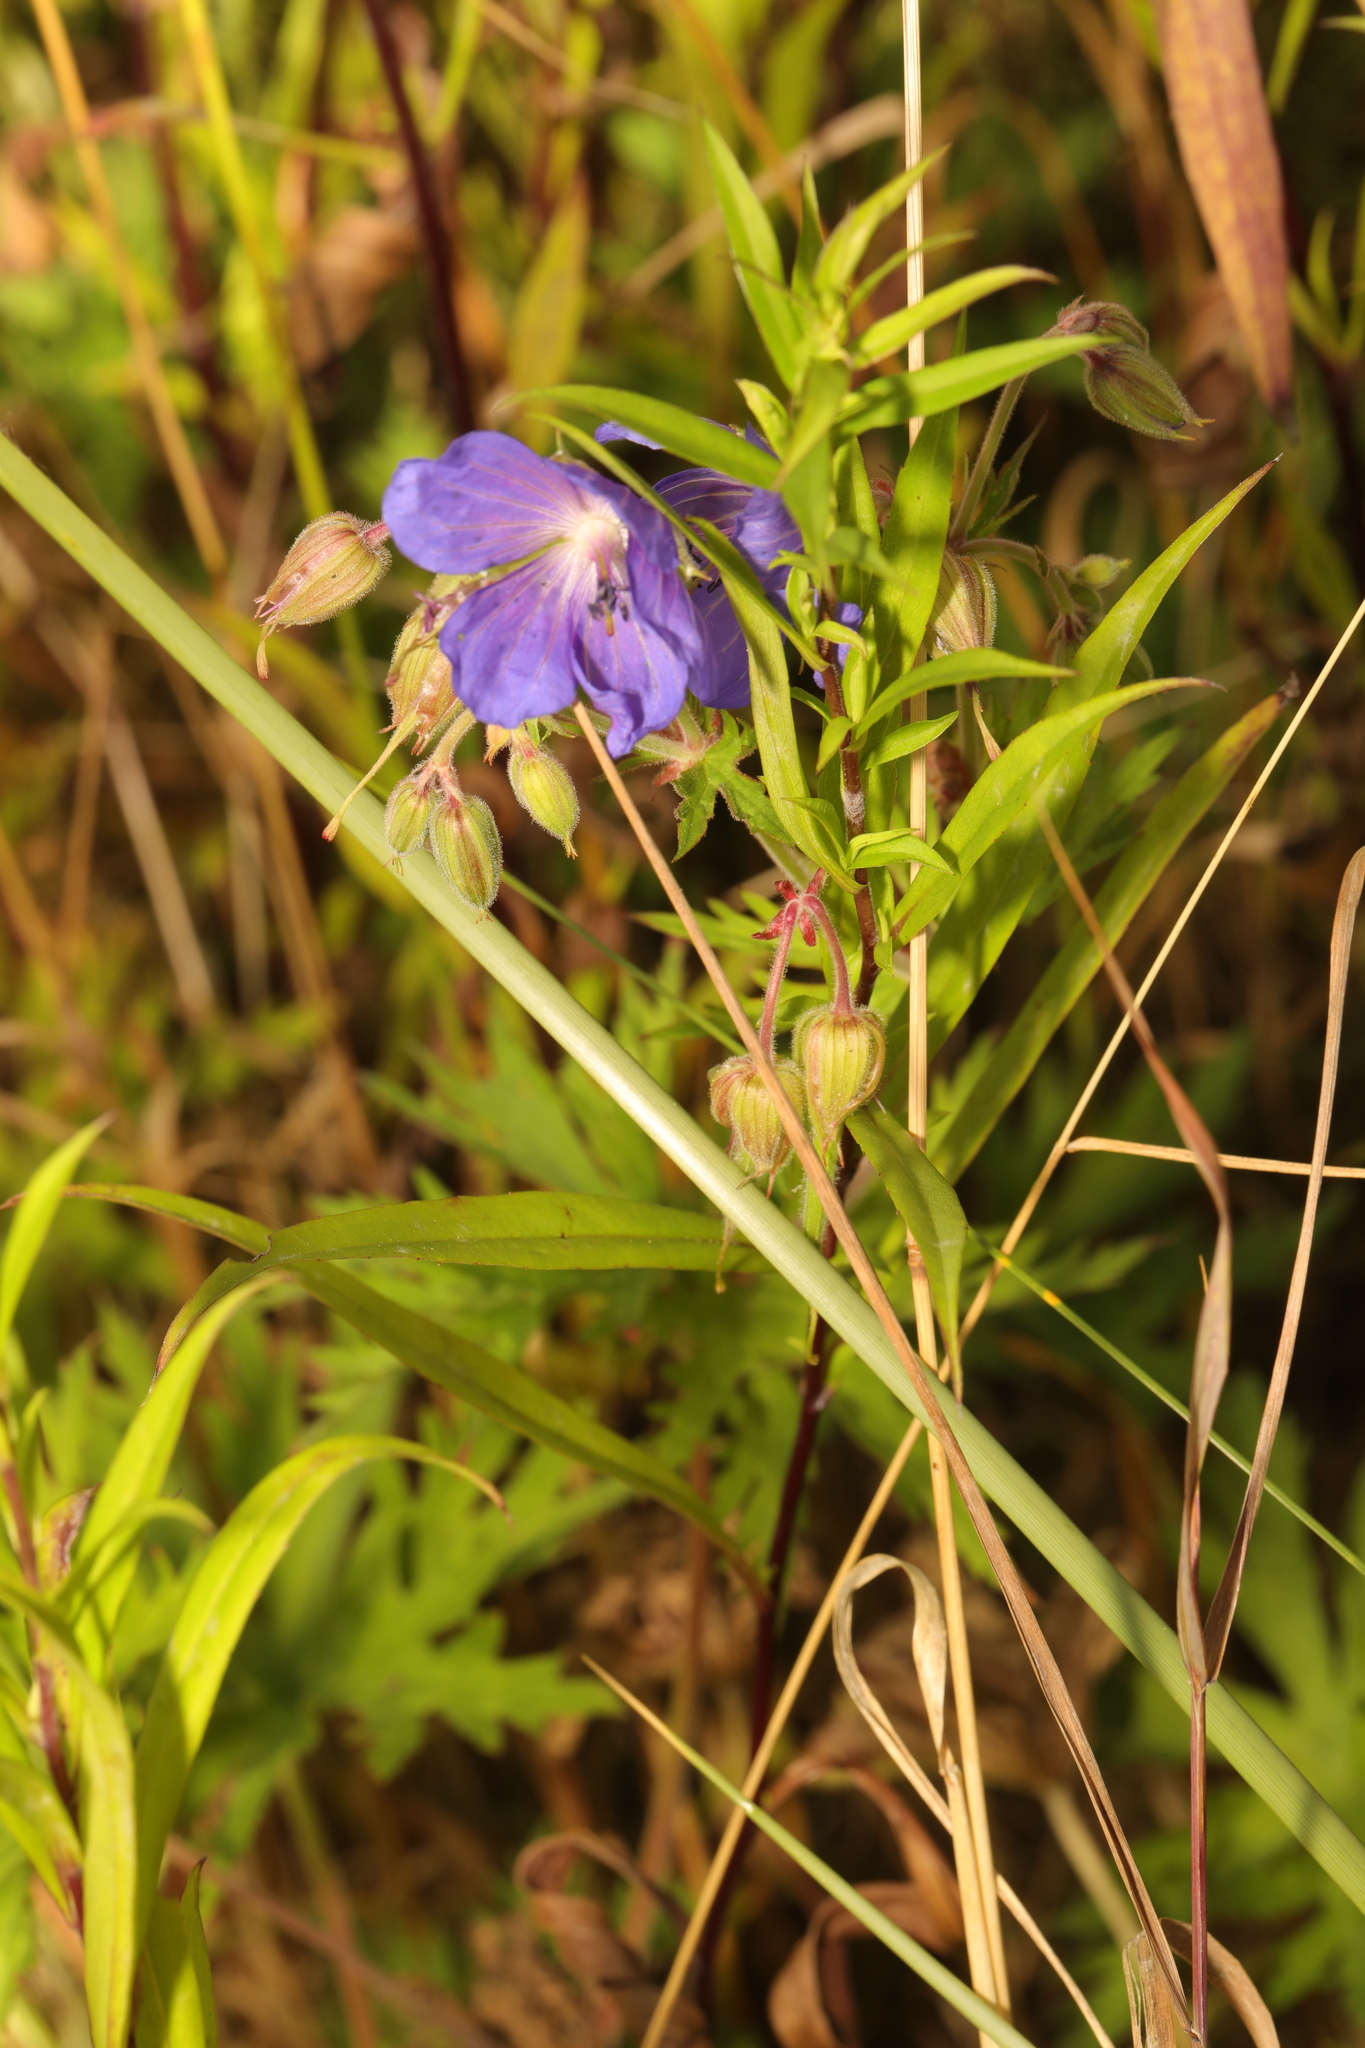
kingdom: Plantae
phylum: Tracheophyta
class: Magnoliopsida
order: Geraniales
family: Geraniaceae
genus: Geranium
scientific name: Geranium pratense
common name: Meadow crane's-bill
